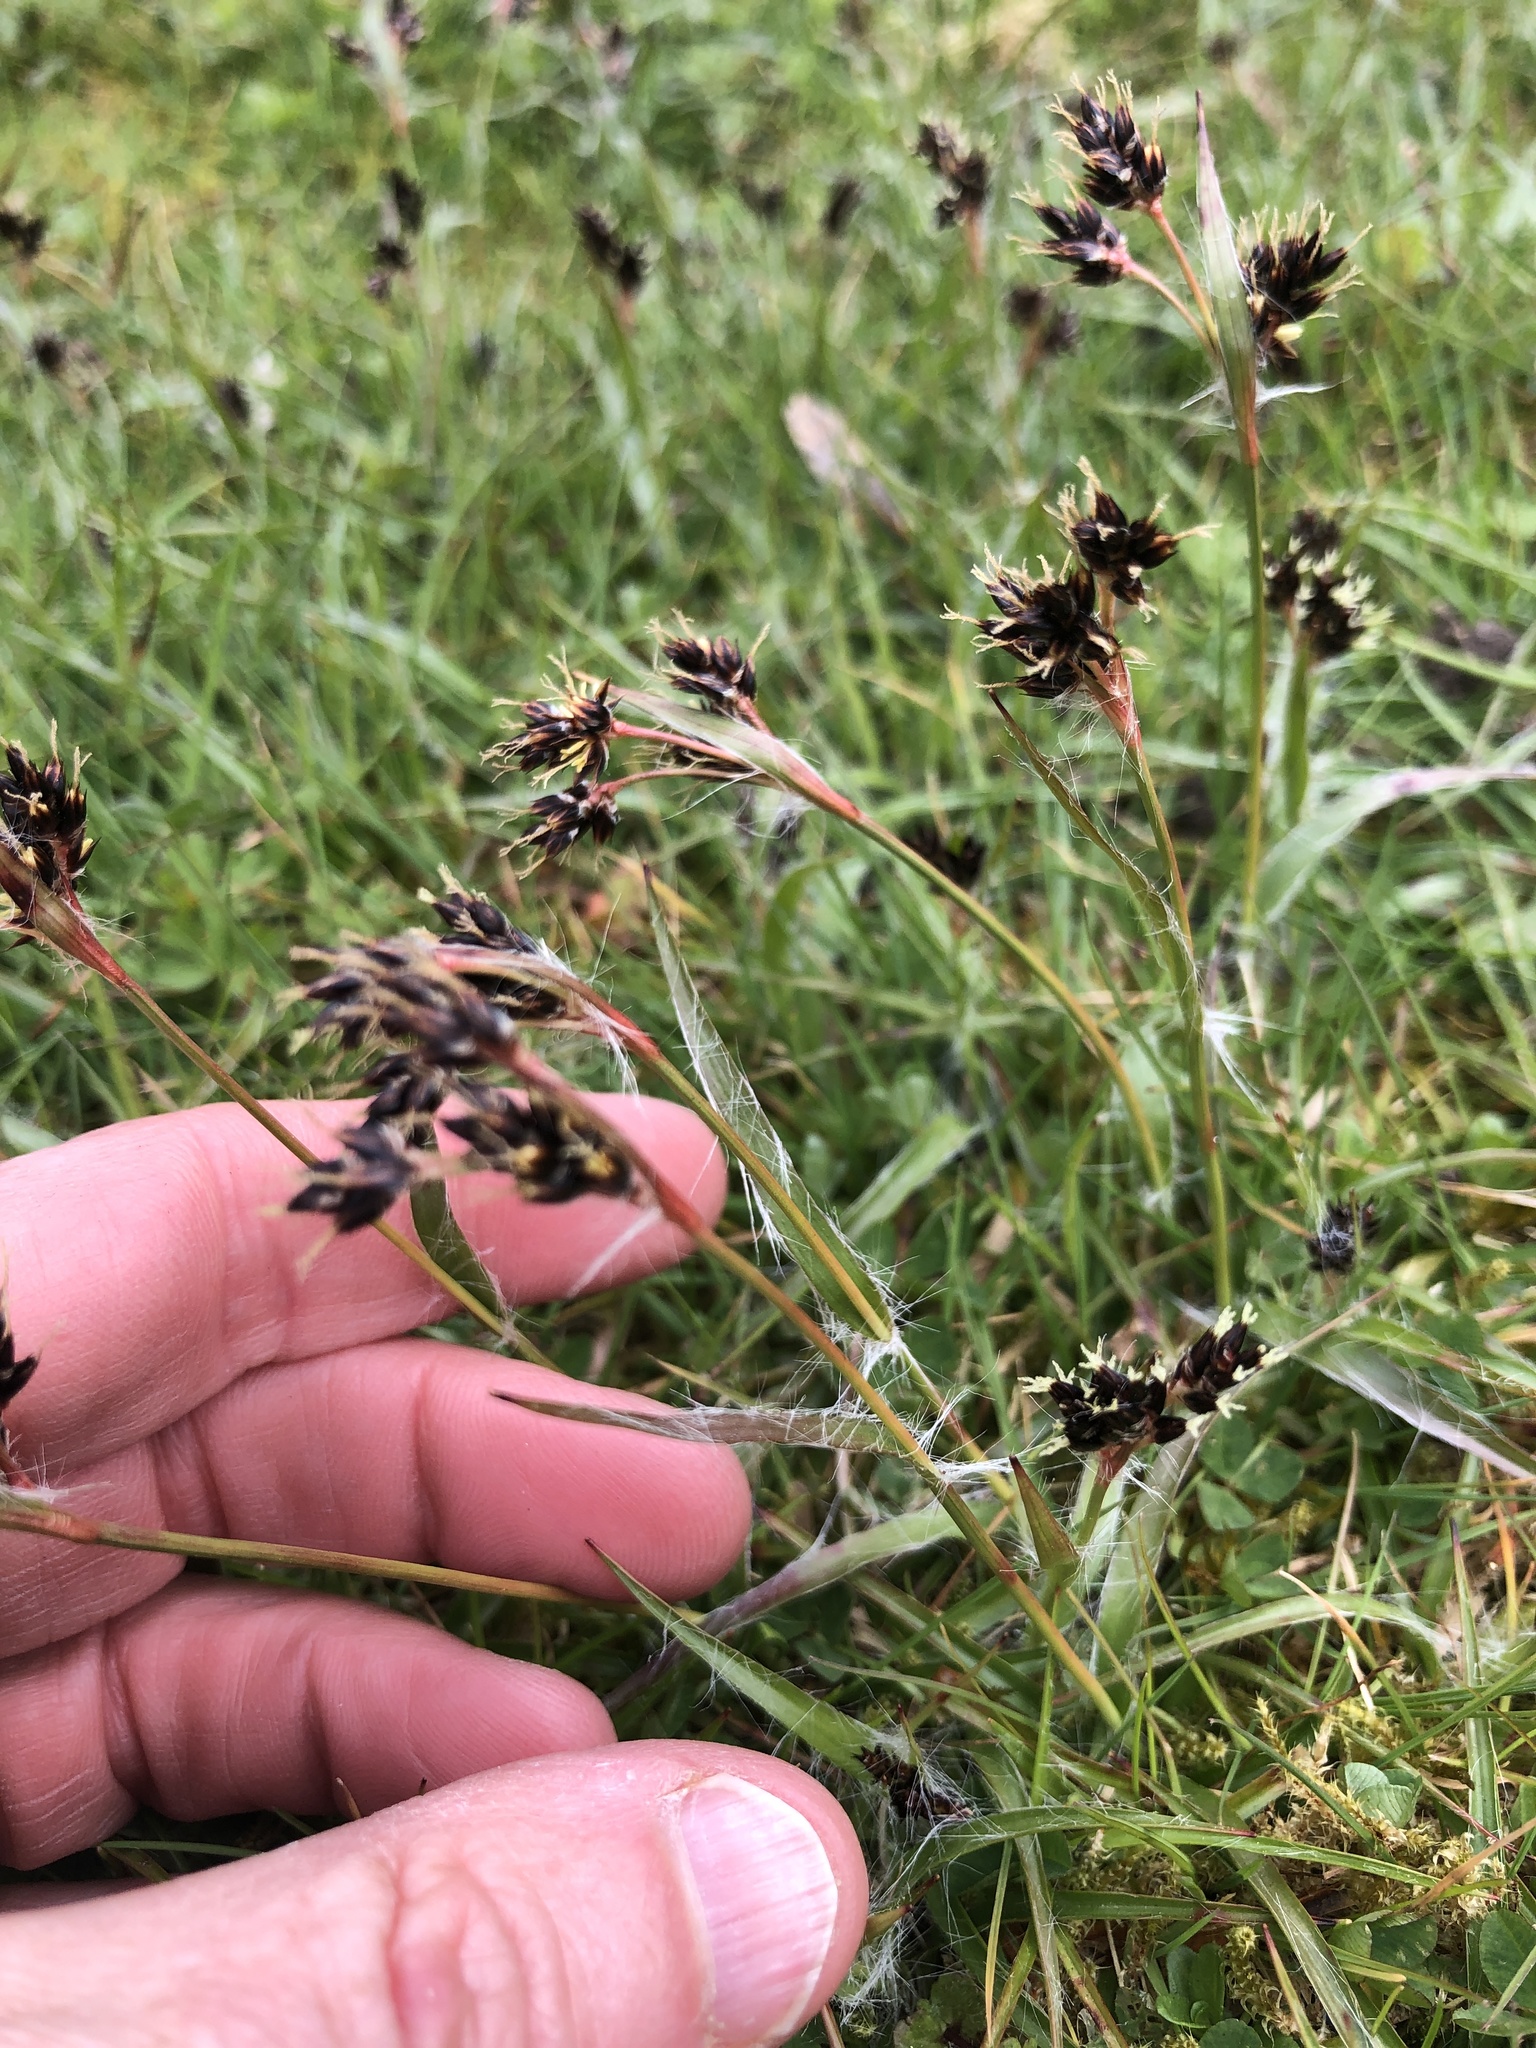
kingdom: Plantae
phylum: Tracheophyta
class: Liliopsida
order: Poales
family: Juncaceae
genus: Luzula
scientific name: Luzula campestris
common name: Field wood-rush
